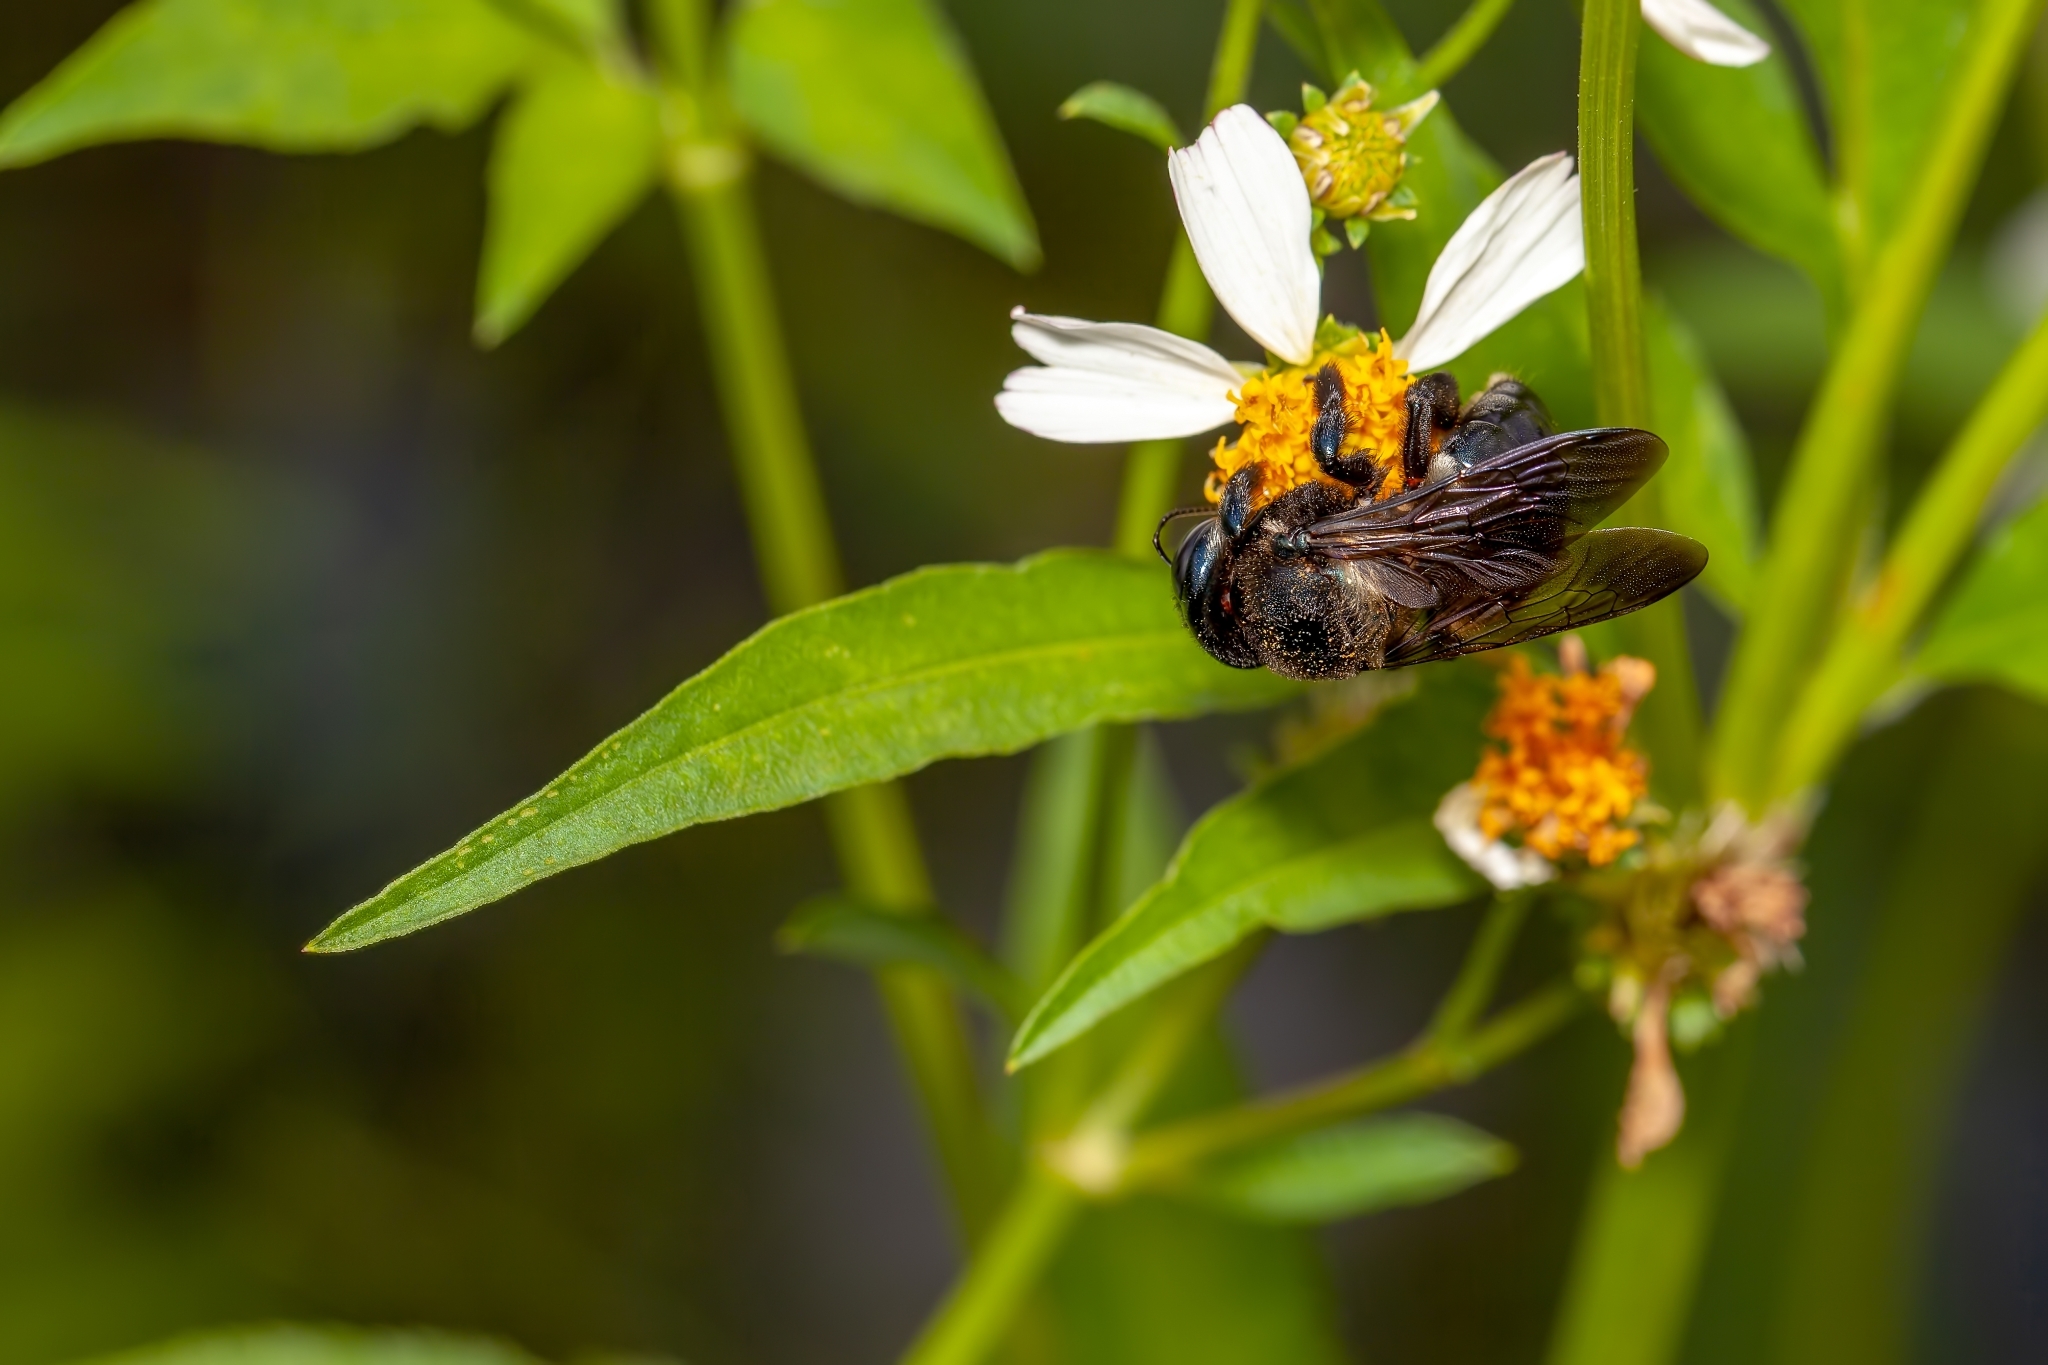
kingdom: Animalia
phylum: Arthropoda
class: Insecta
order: Hymenoptera
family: Apidae
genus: Xylocopa
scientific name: Xylocopa micans
